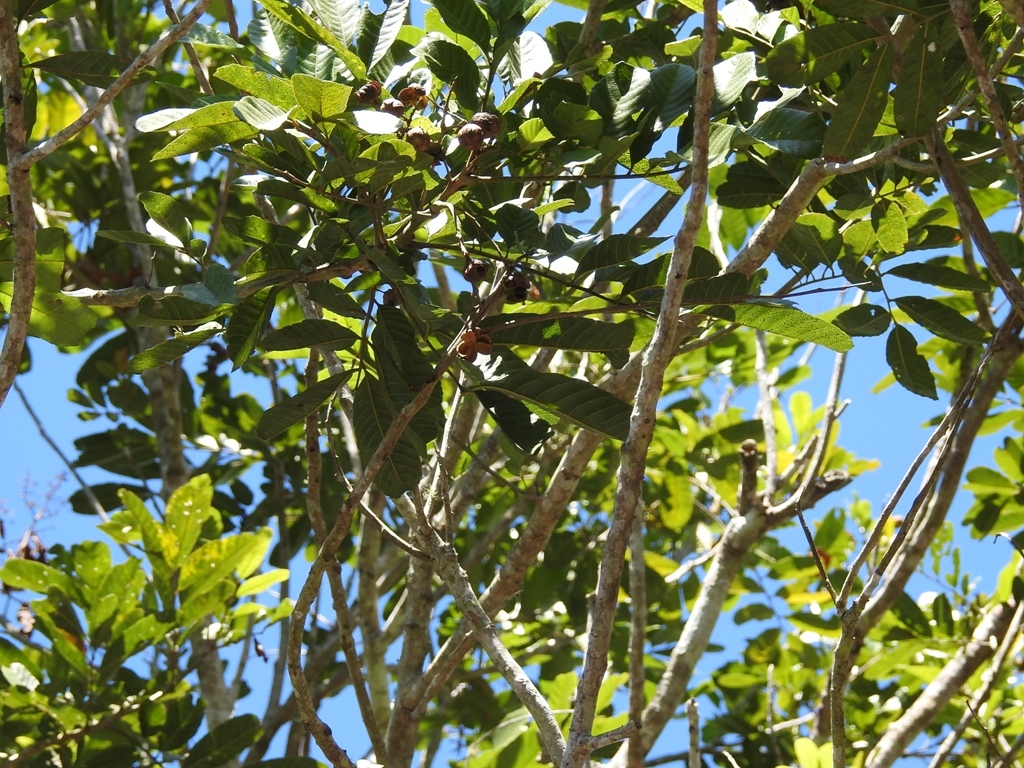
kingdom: Plantae
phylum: Tracheophyta
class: Magnoliopsida
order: Sapindales
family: Sapindaceae
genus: Cupania
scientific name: Cupania dentata
